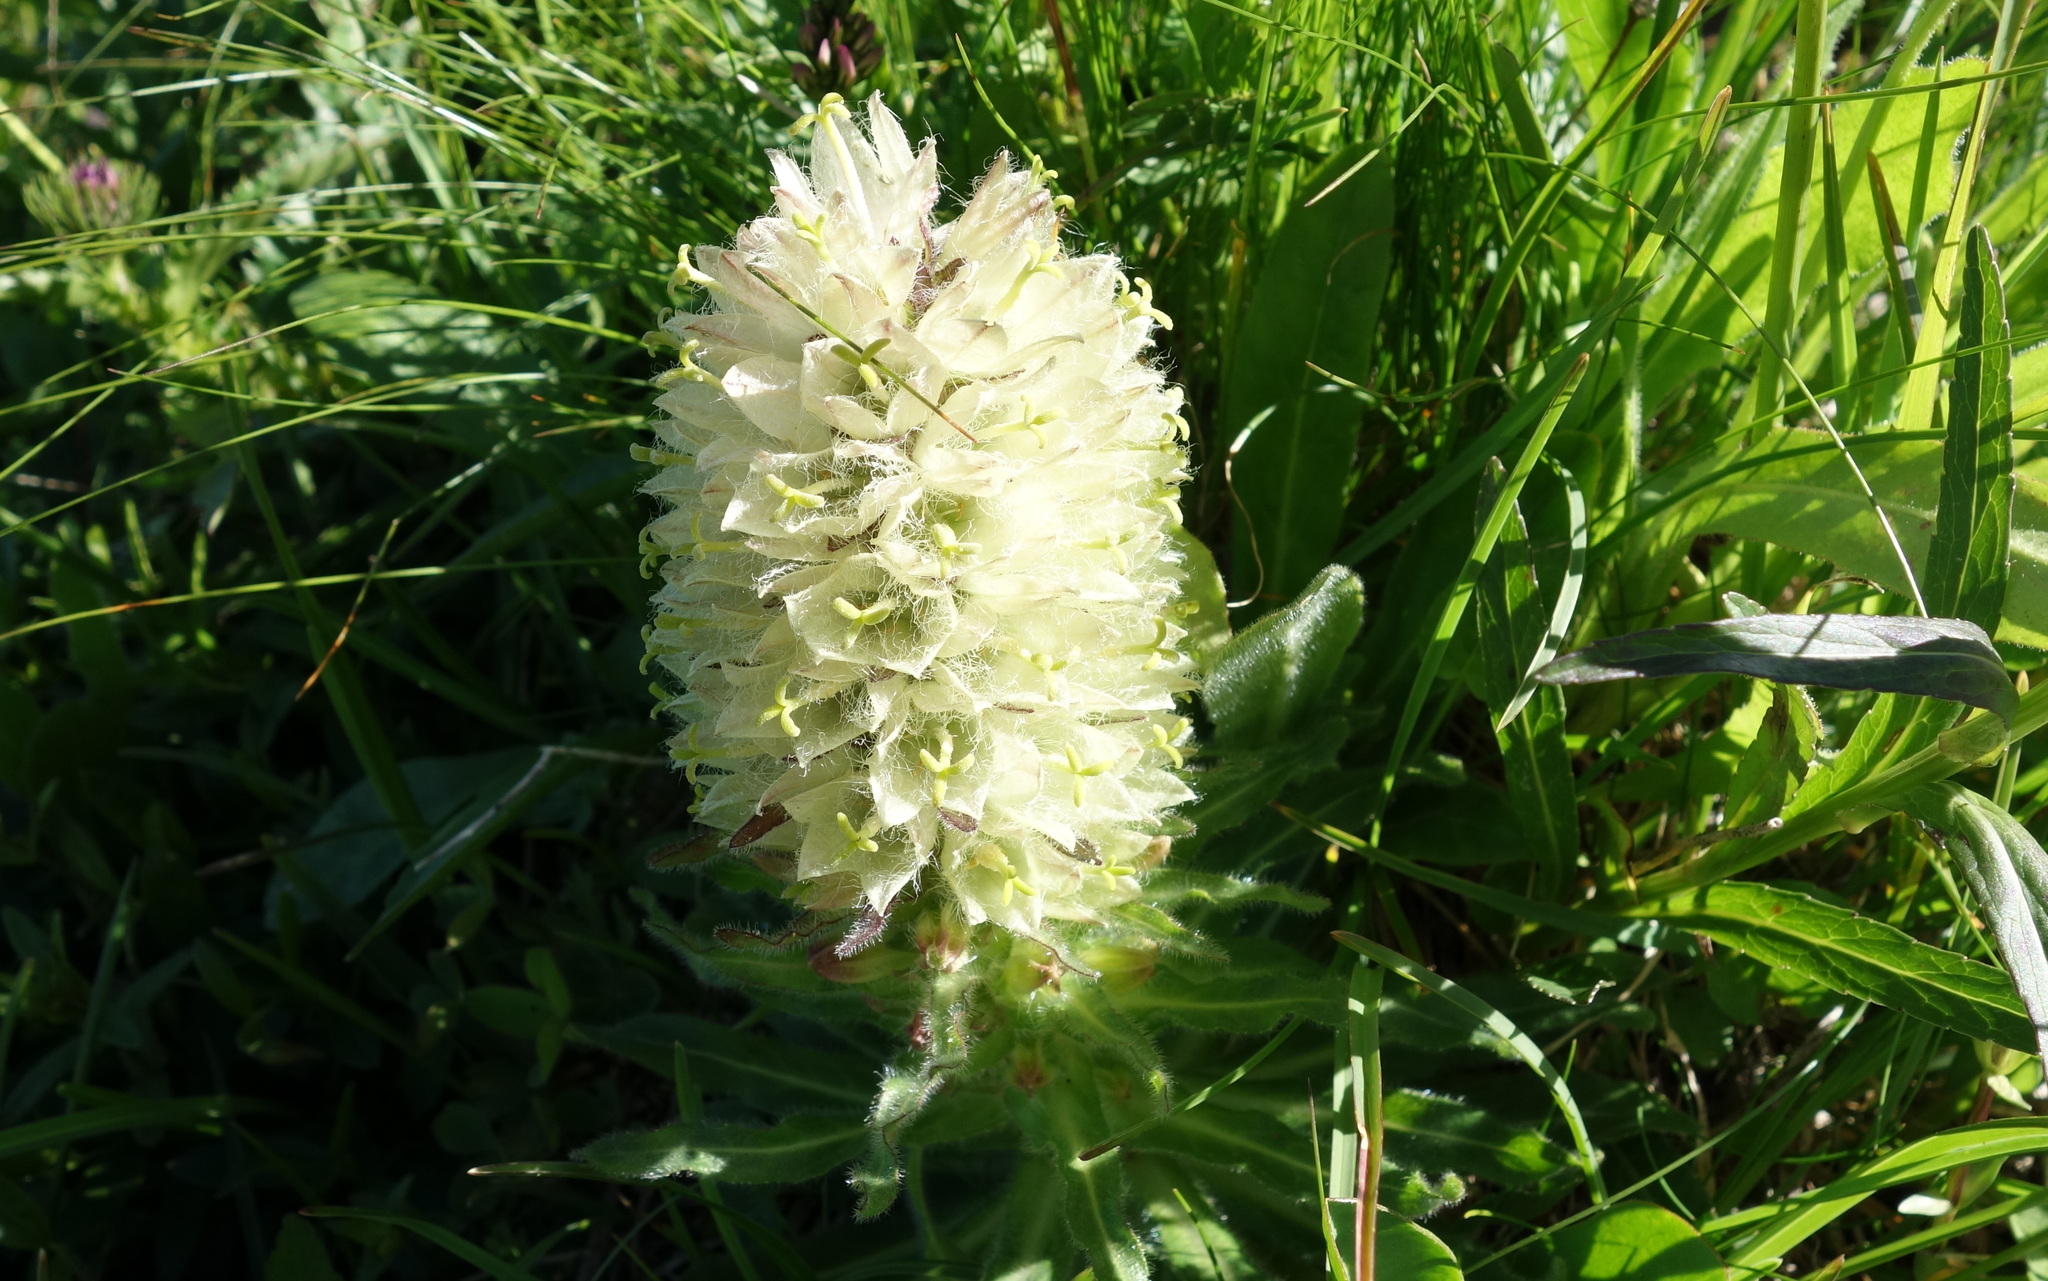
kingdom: Plantae
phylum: Tracheophyta
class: Magnoliopsida
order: Asterales
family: Campanulaceae
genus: Campanula
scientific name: Campanula thyrsoides
